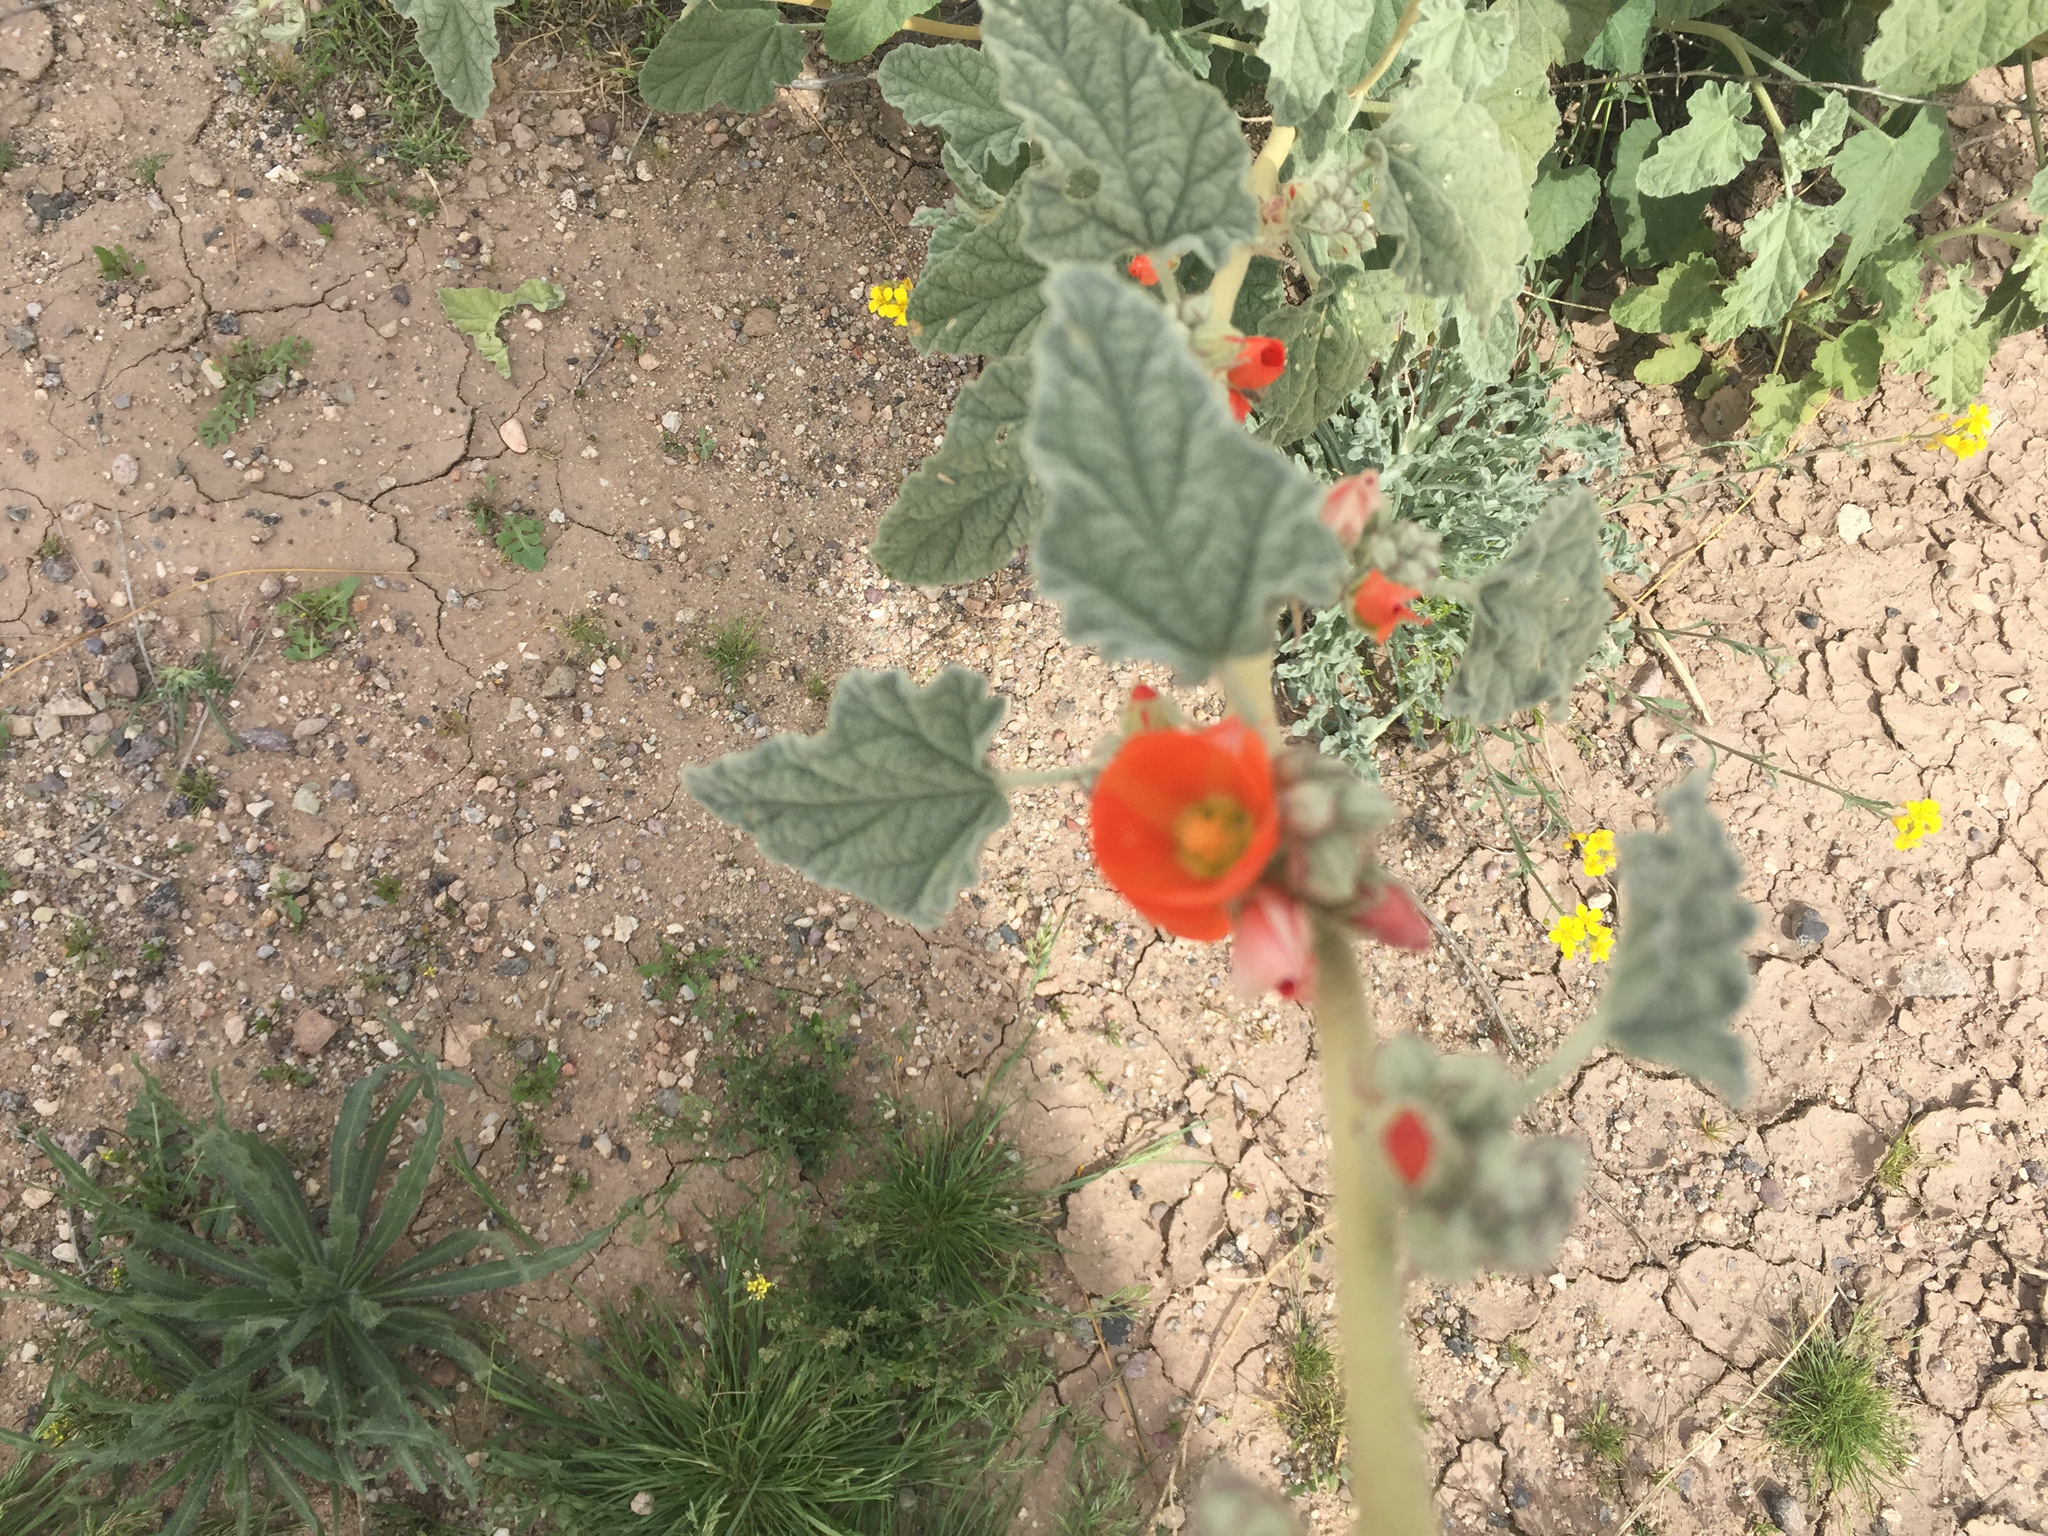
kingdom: Plantae
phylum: Tracheophyta
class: Magnoliopsida
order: Malvales
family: Malvaceae
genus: Sphaeralcea
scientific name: Sphaeralcea ambigua
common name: Apricot globe-mallow
